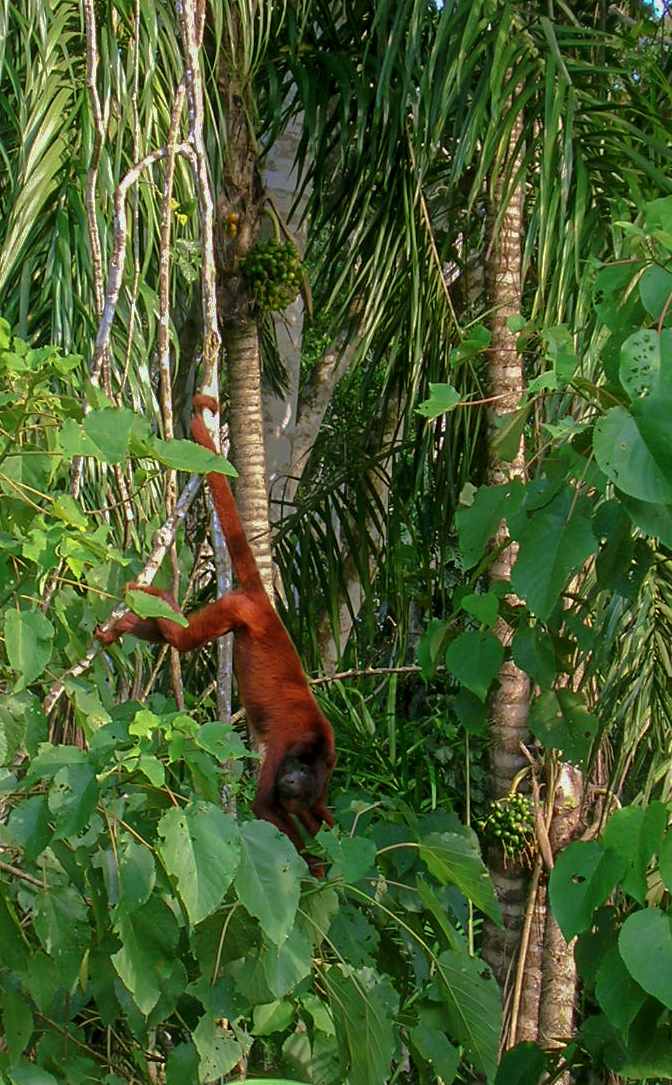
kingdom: Animalia
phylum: Chordata
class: Mammalia
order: Primates
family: Atelidae
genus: Alouatta
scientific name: Alouatta sara
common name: Bolivian red howler
